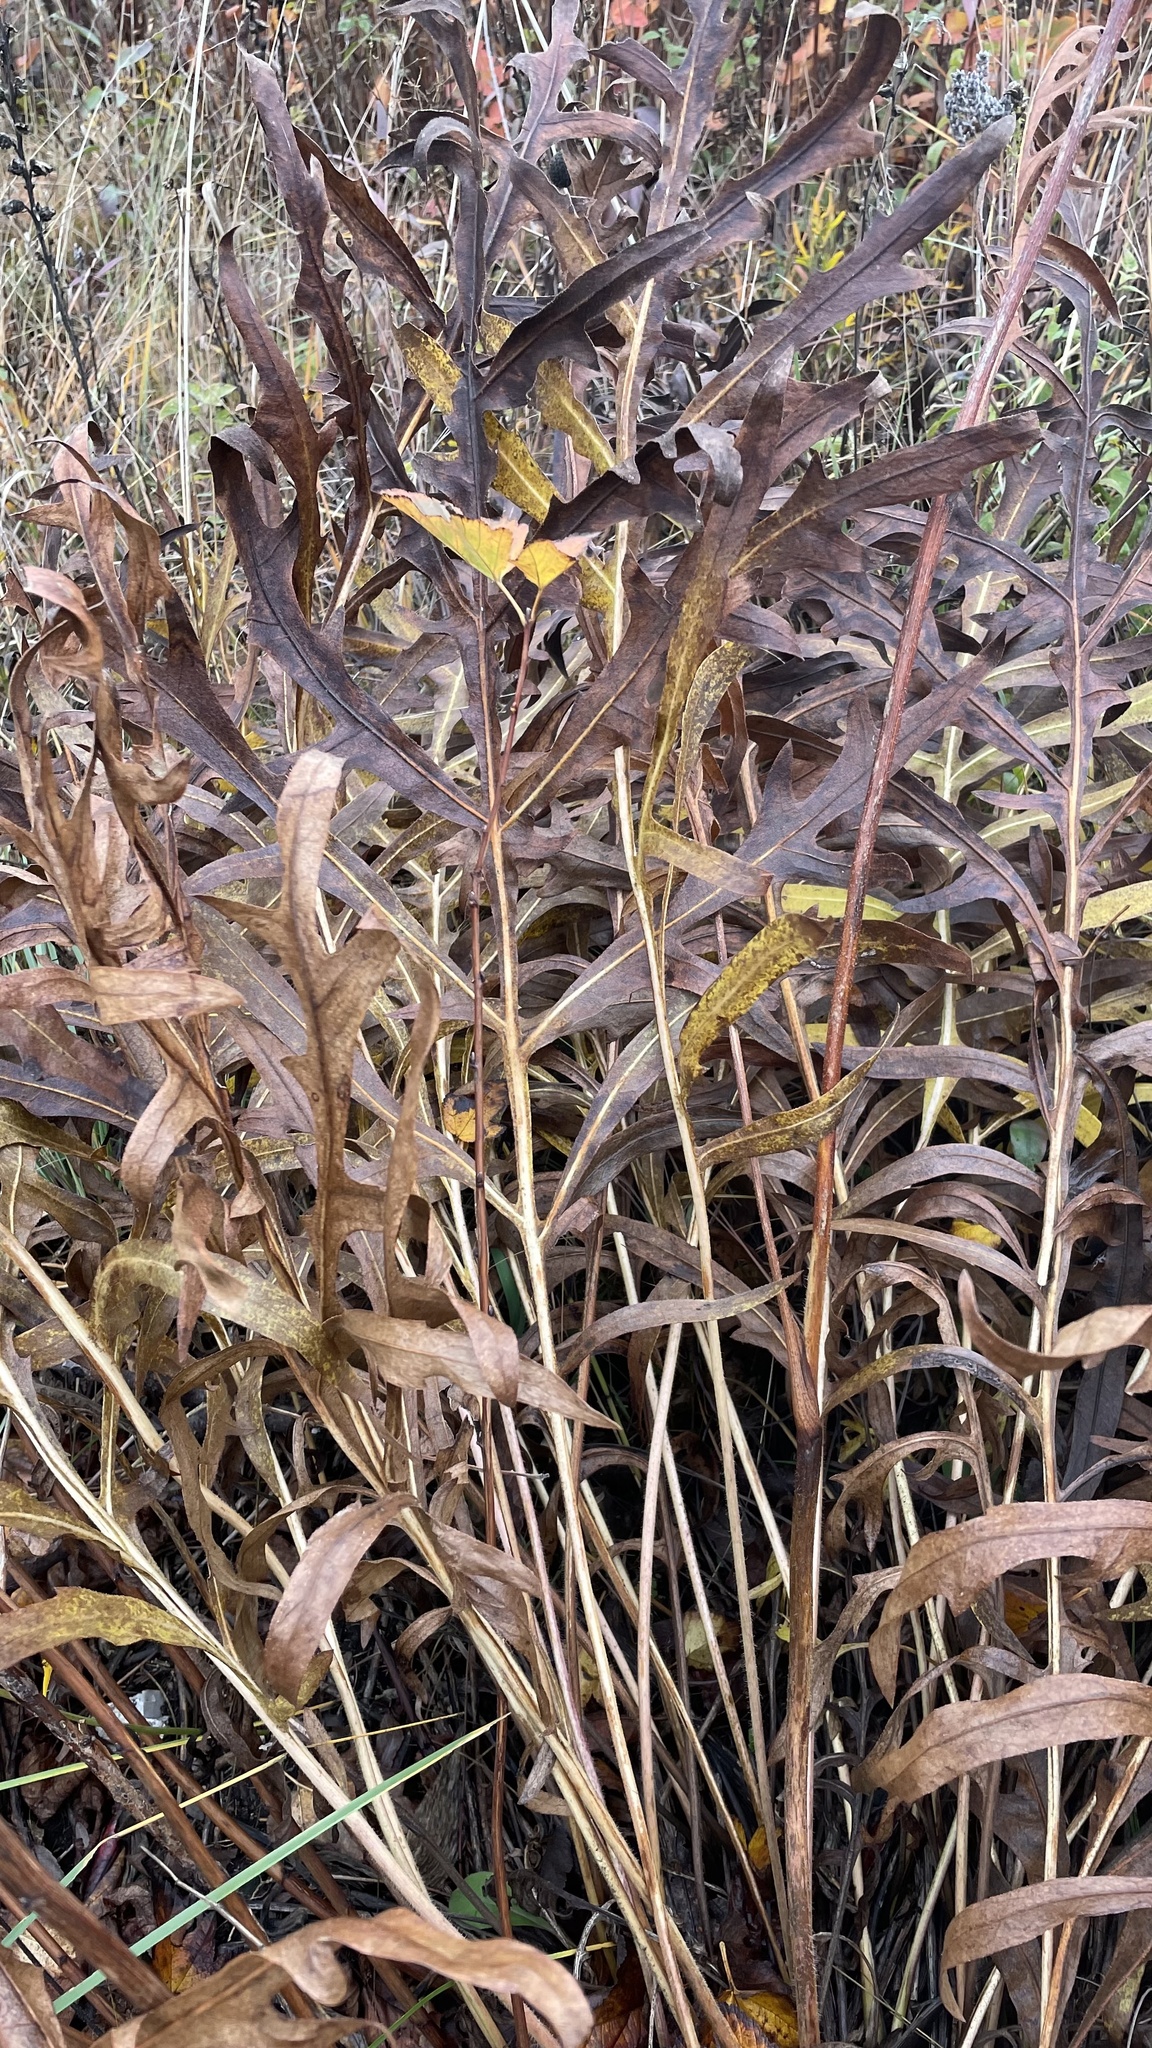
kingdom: Plantae
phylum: Tracheophyta
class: Magnoliopsida
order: Asterales
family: Asteraceae
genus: Silphium
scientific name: Silphium laciniatum
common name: Polarplant
